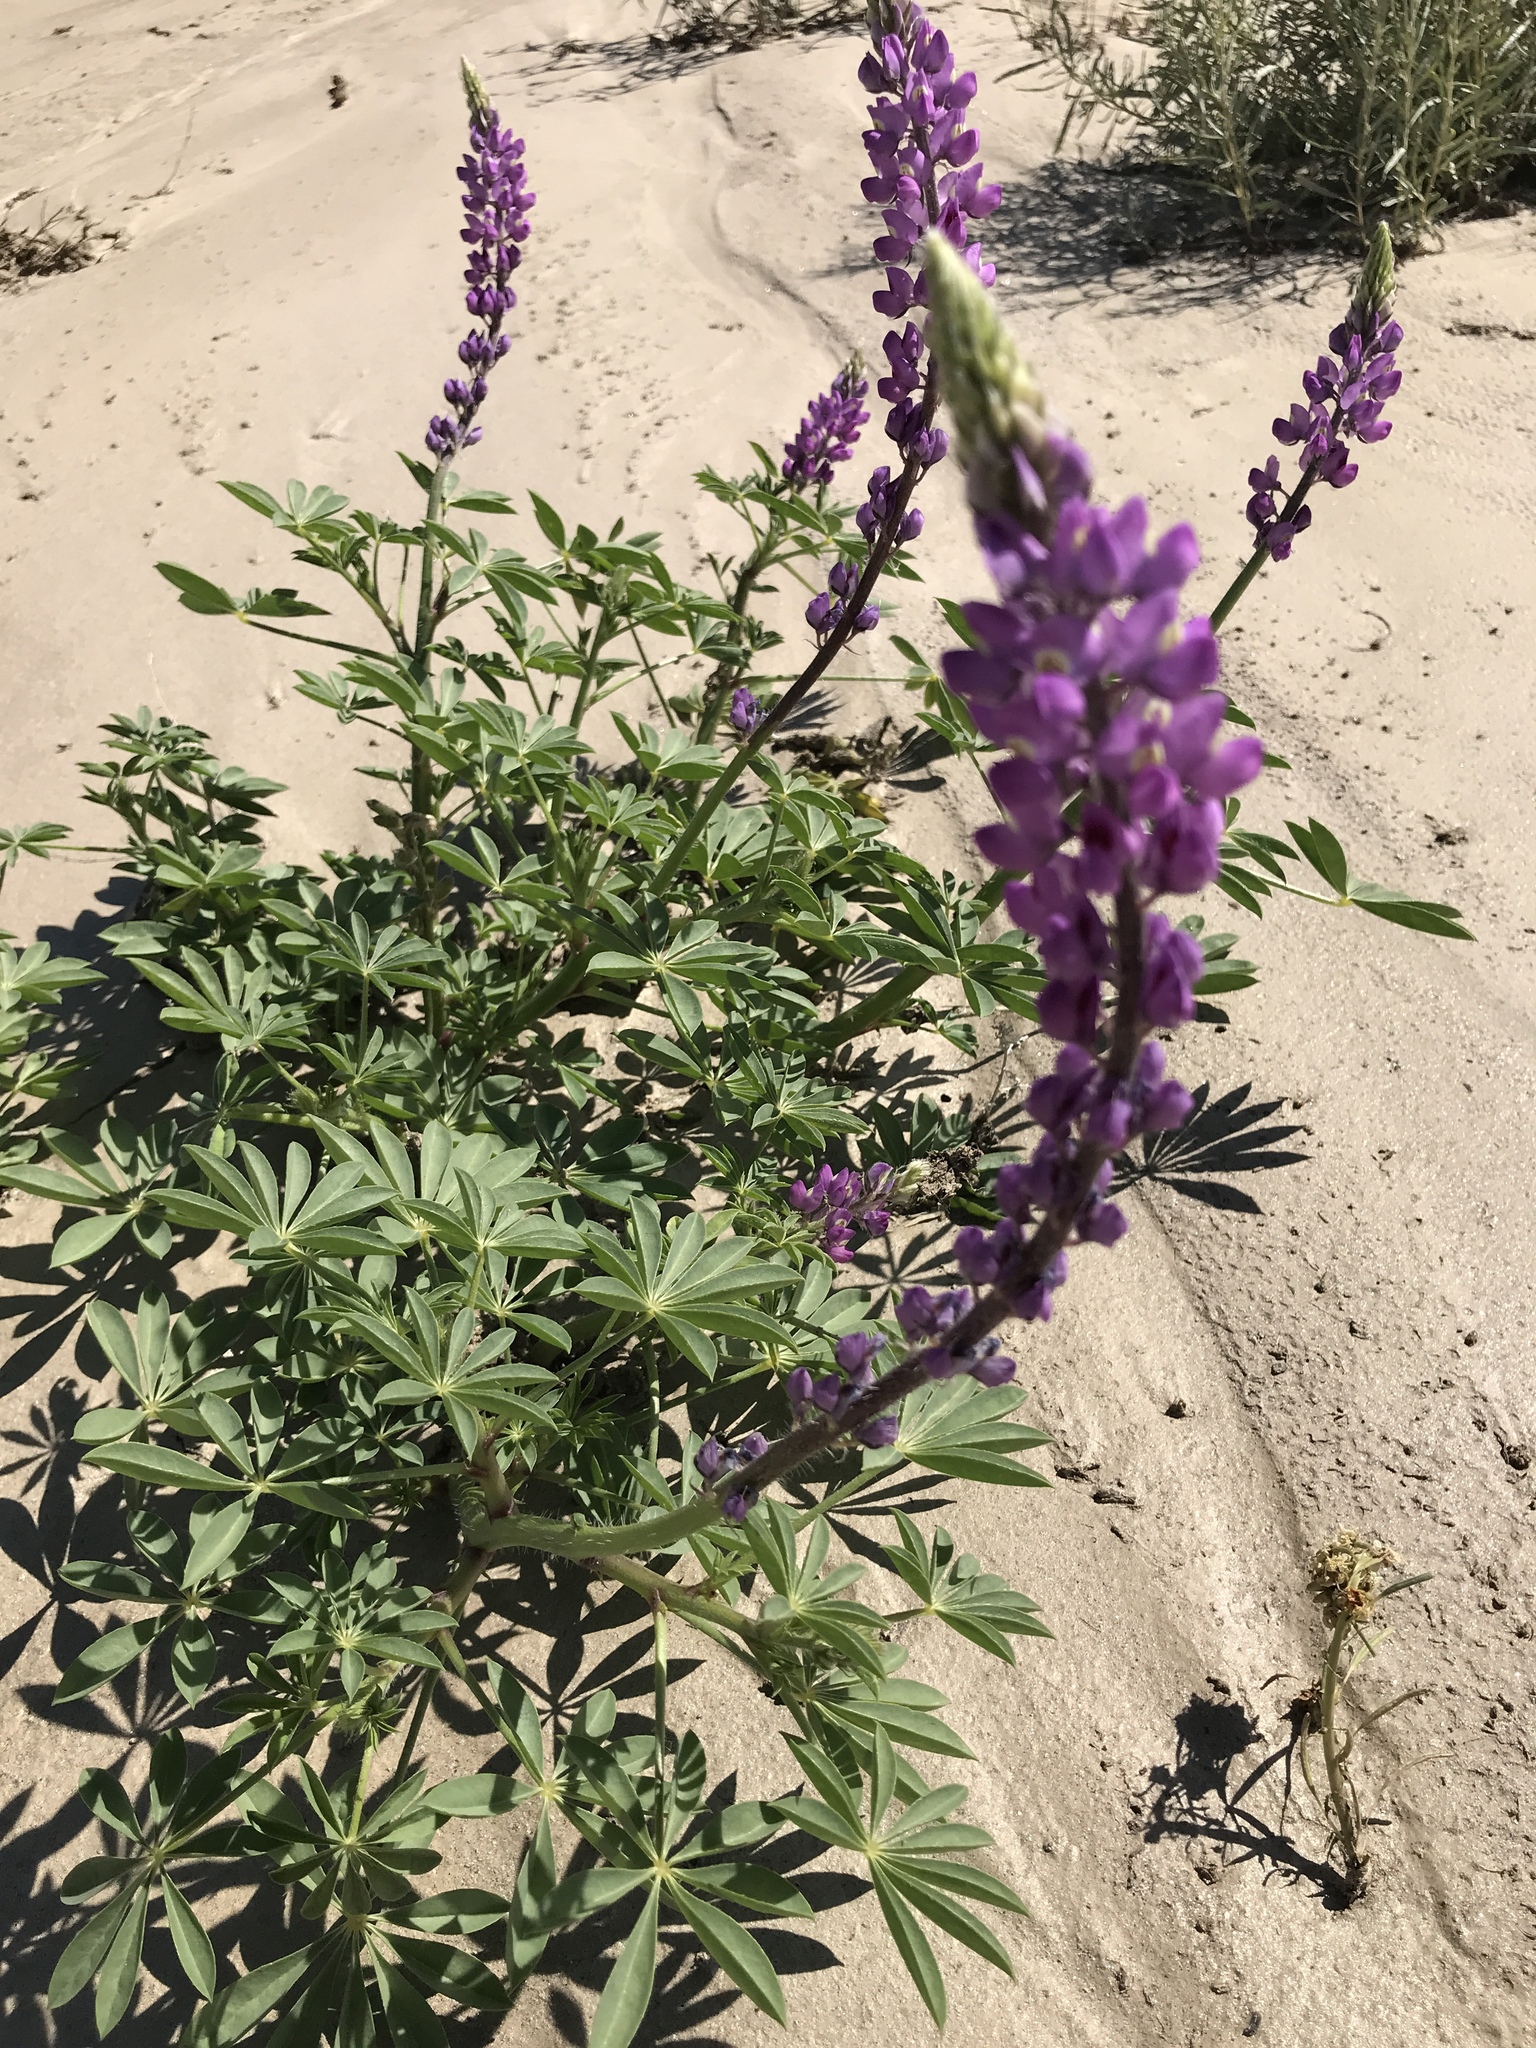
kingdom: Plantae
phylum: Tracheophyta
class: Magnoliopsida
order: Fabales
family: Fabaceae
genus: Lupinus
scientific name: Lupinus arizonicus
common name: Arizona lupine
